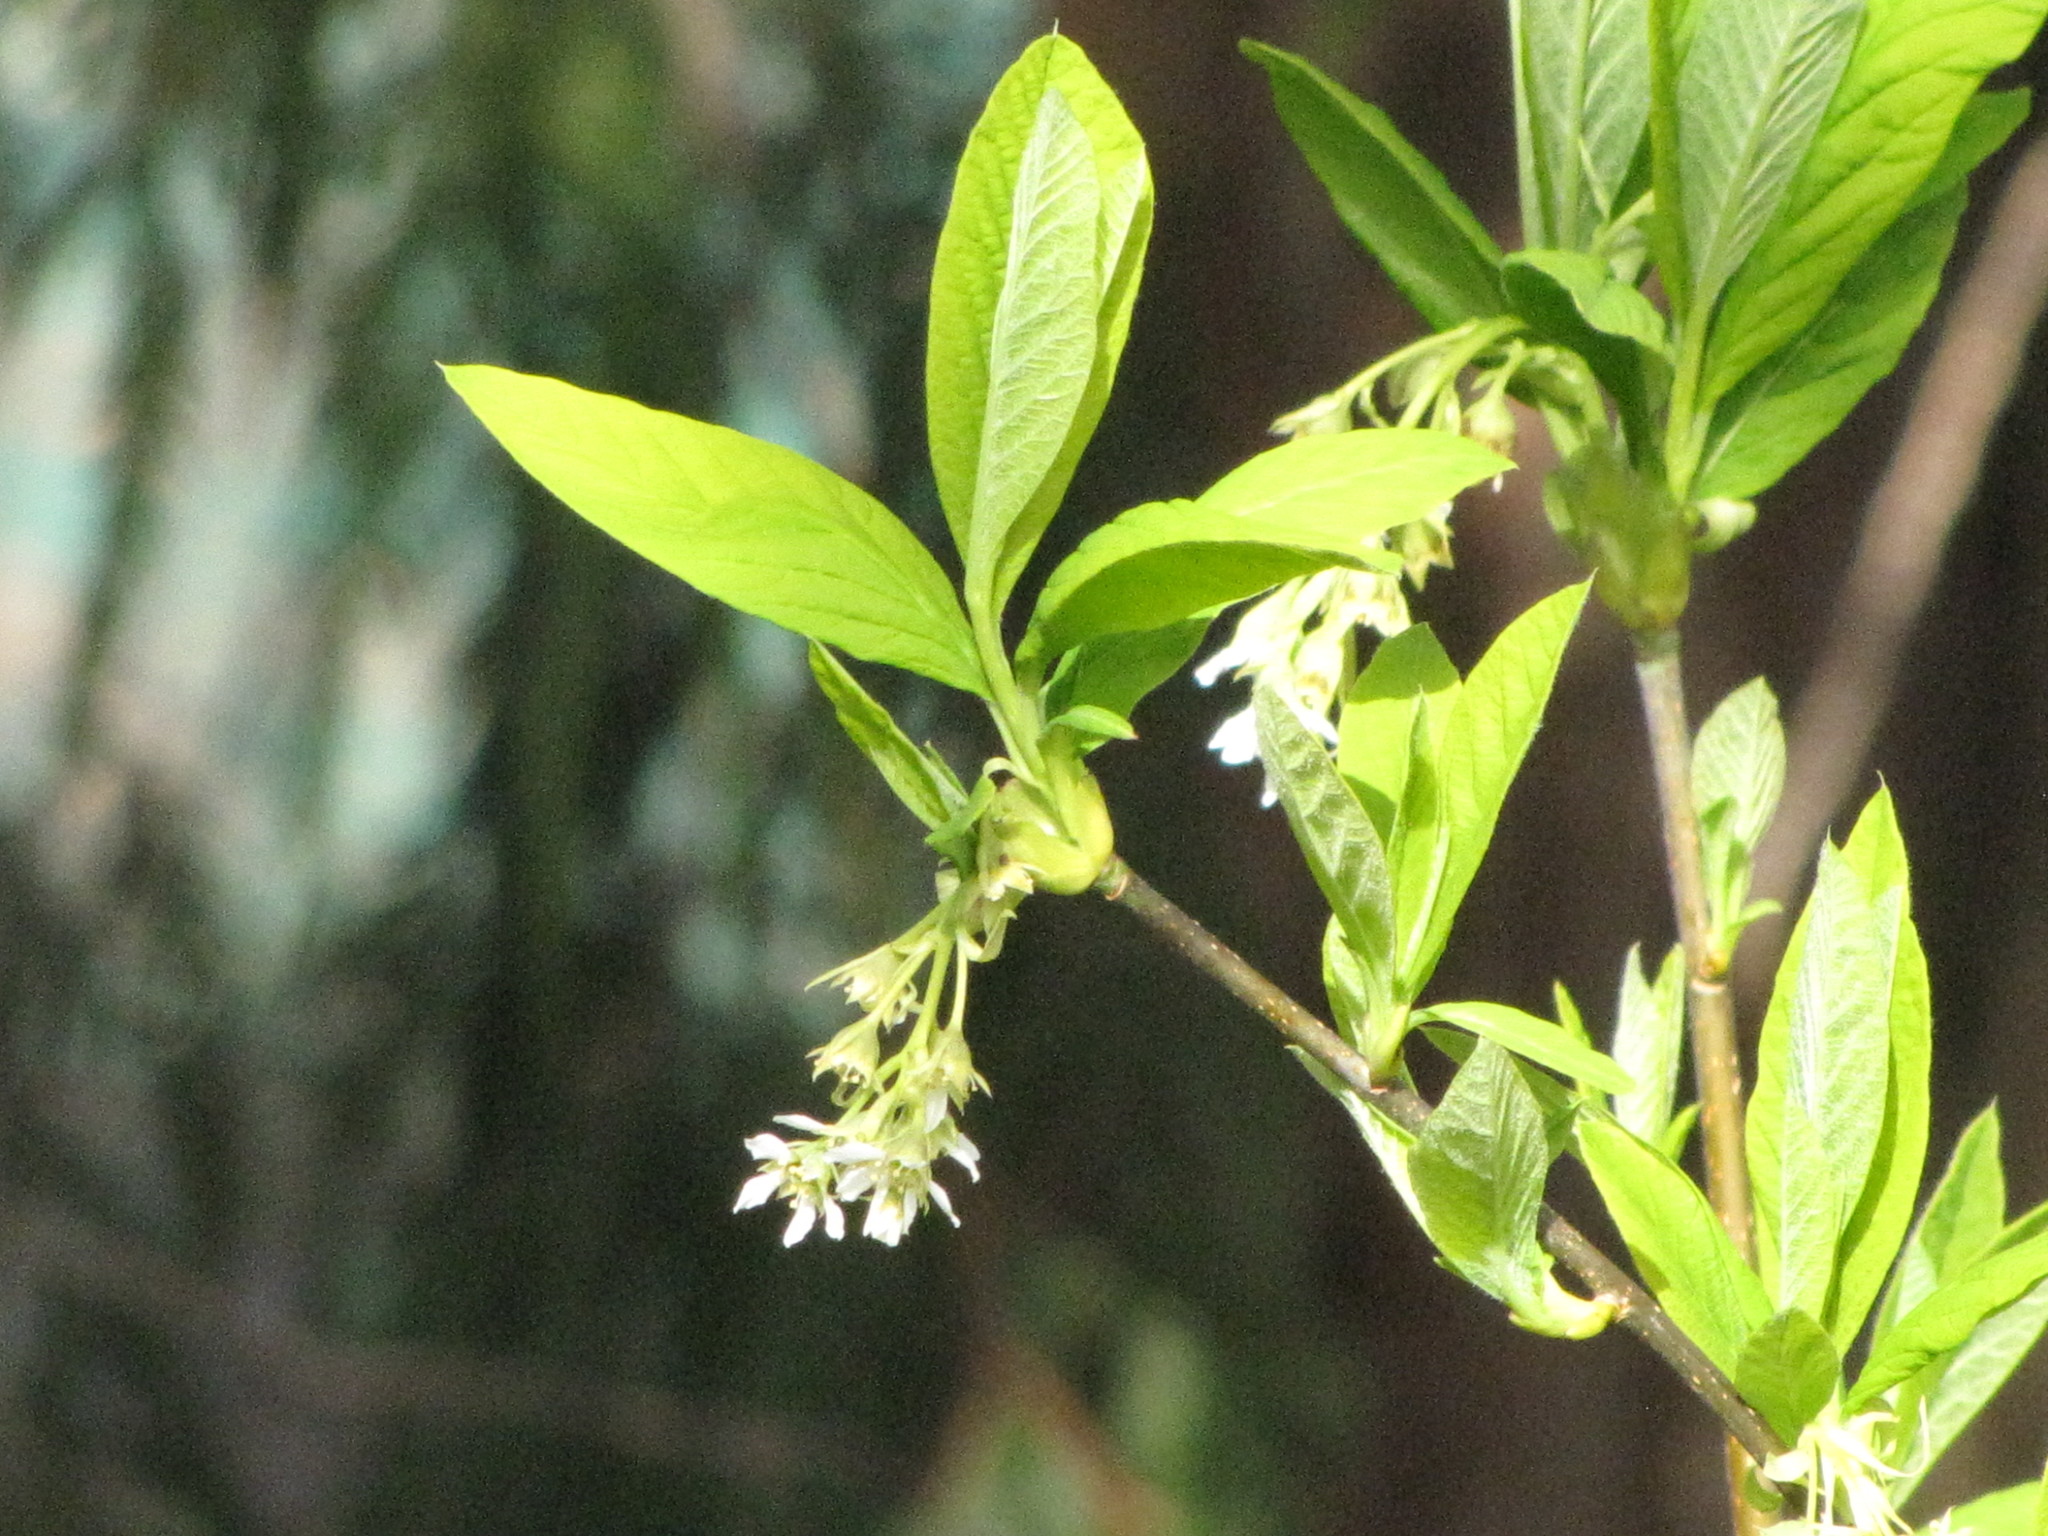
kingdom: Plantae
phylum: Tracheophyta
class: Magnoliopsida
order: Rosales
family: Rosaceae
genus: Oemleria
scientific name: Oemleria cerasiformis
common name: Osoberry
